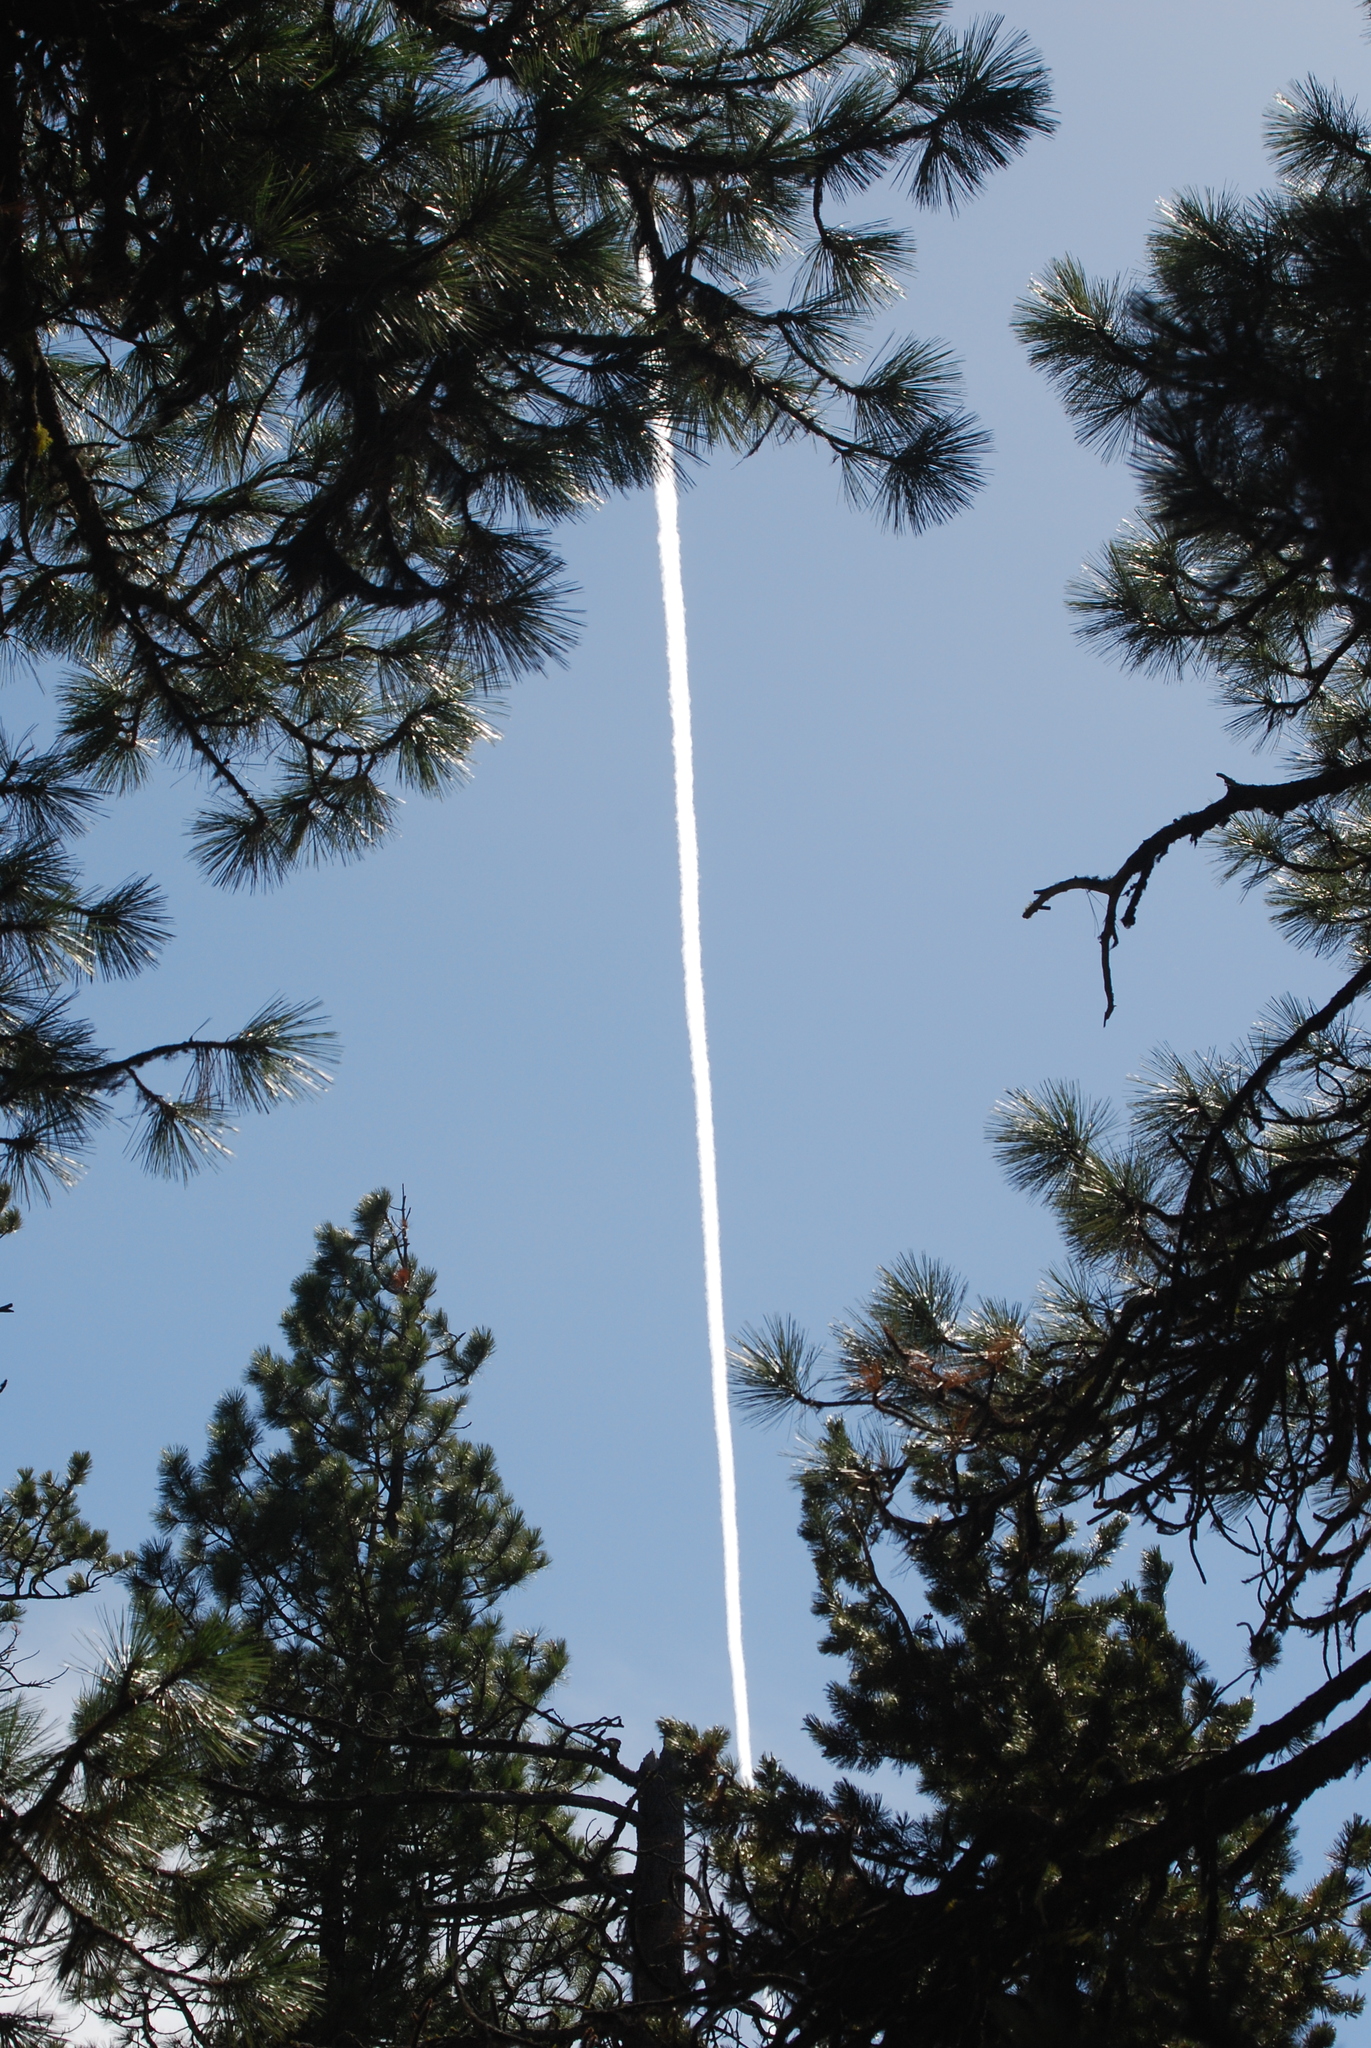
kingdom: Plantae
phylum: Tracheophyta
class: Pinopsida
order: Pinales
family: Pinaceae
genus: Pinus
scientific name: Pinus ponderosa
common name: Western yellow-pine
